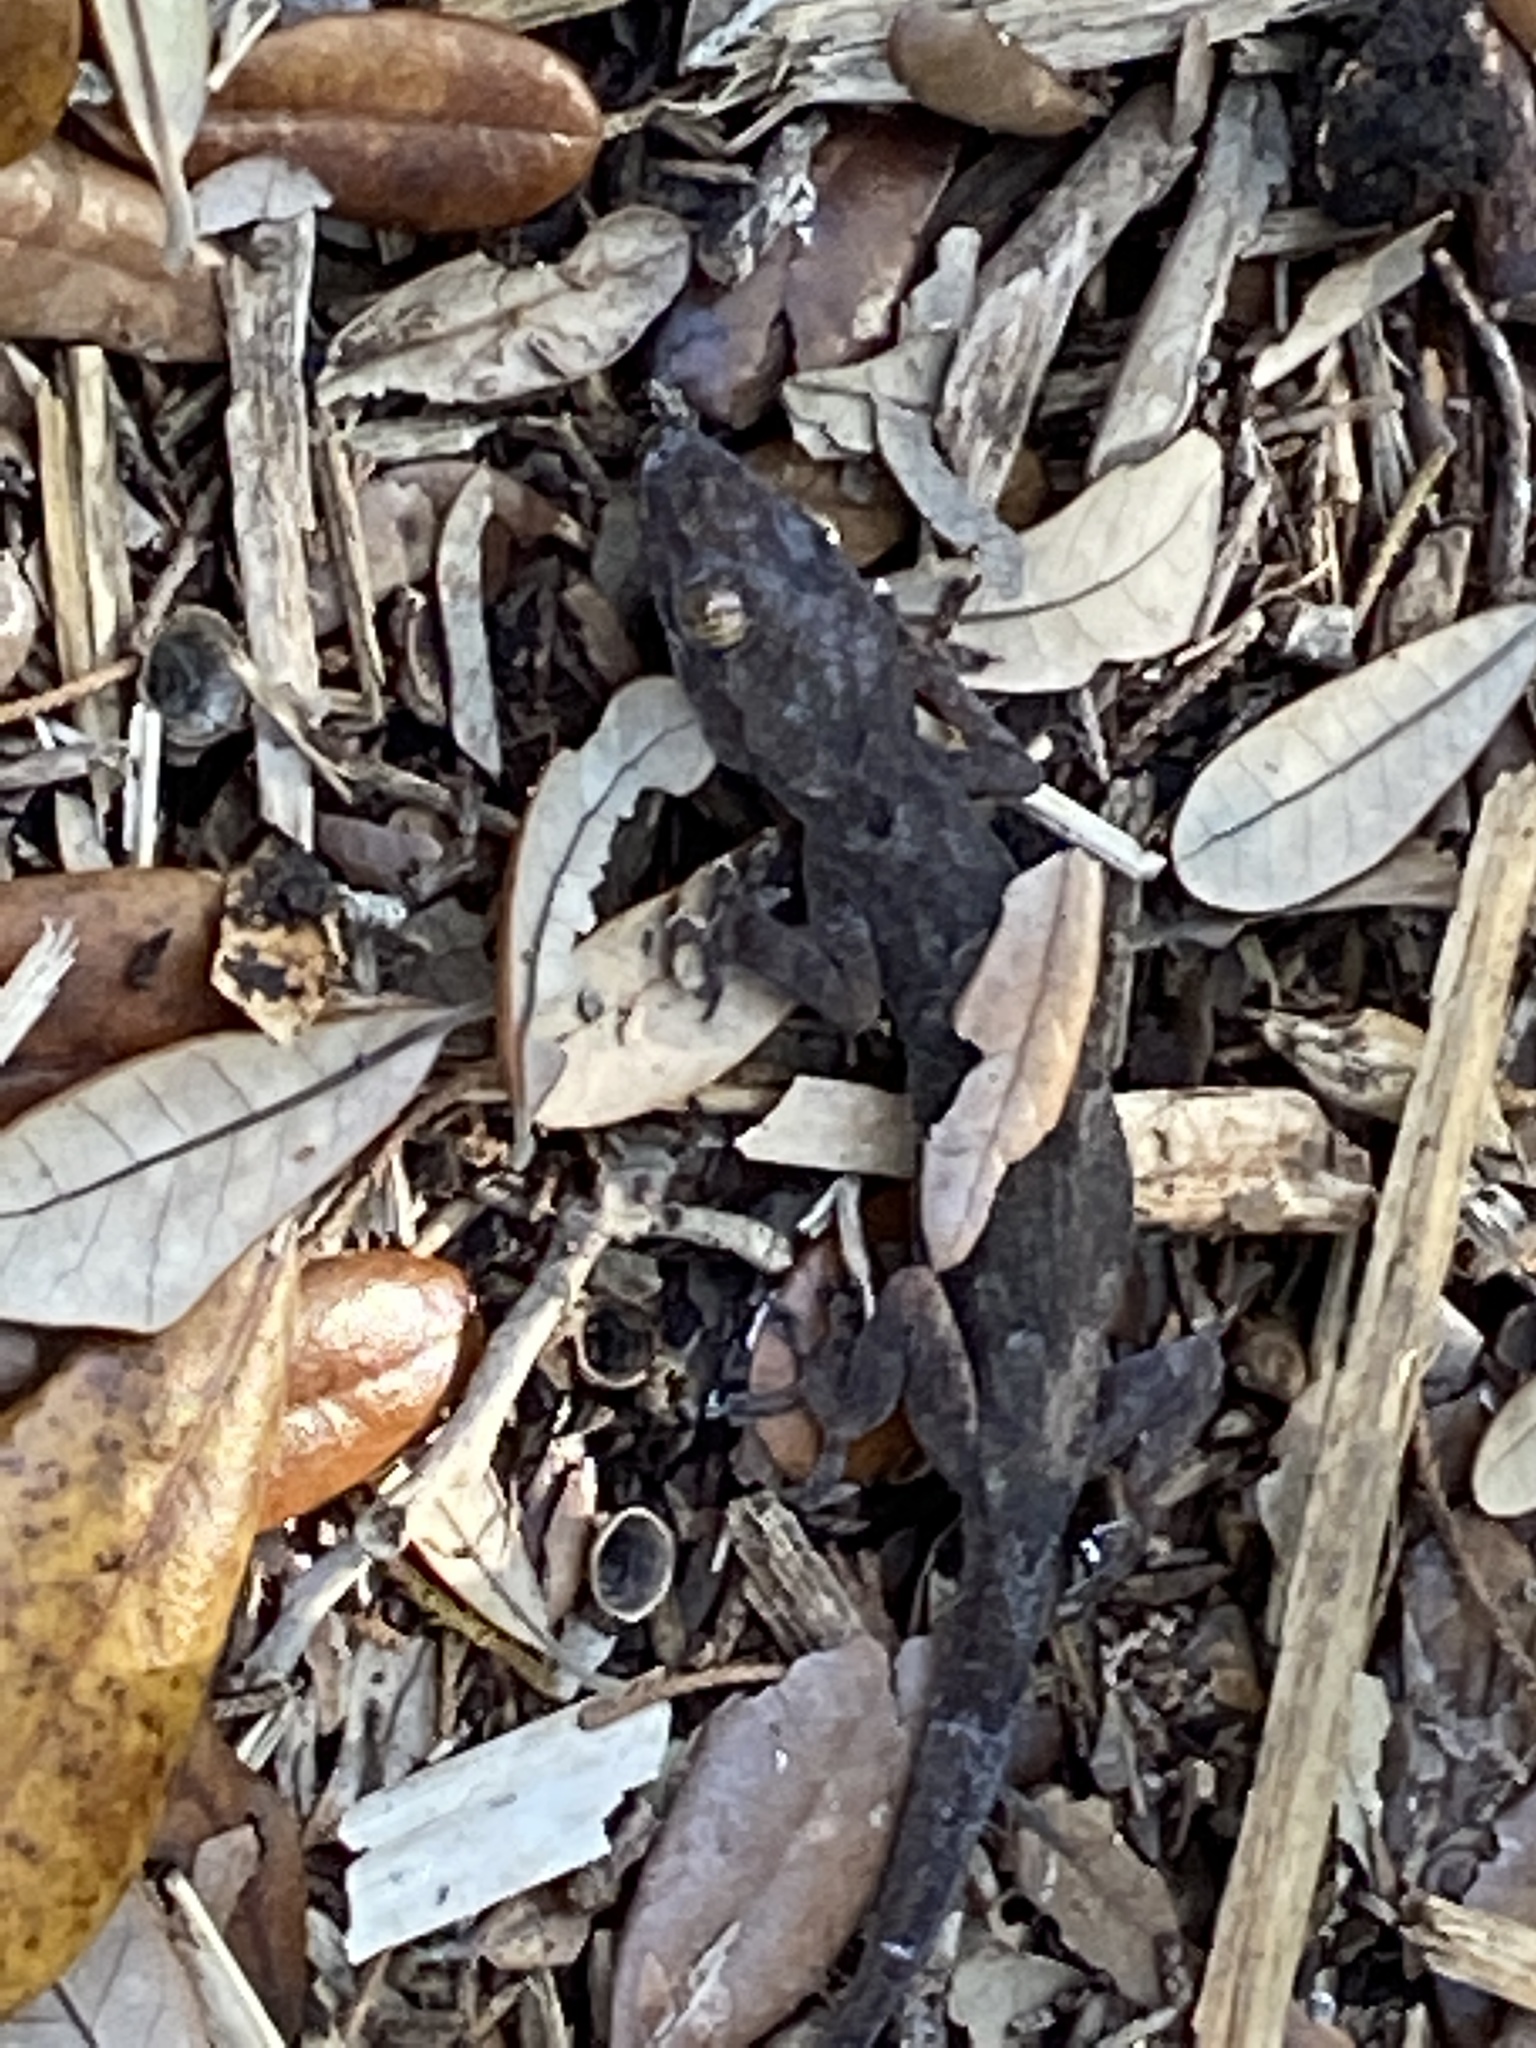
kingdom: Animalia
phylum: Chordata
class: Squamata
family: Gekkonidae
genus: Hemidactylus
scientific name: Hemidactylus mabouia
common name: House gecko
